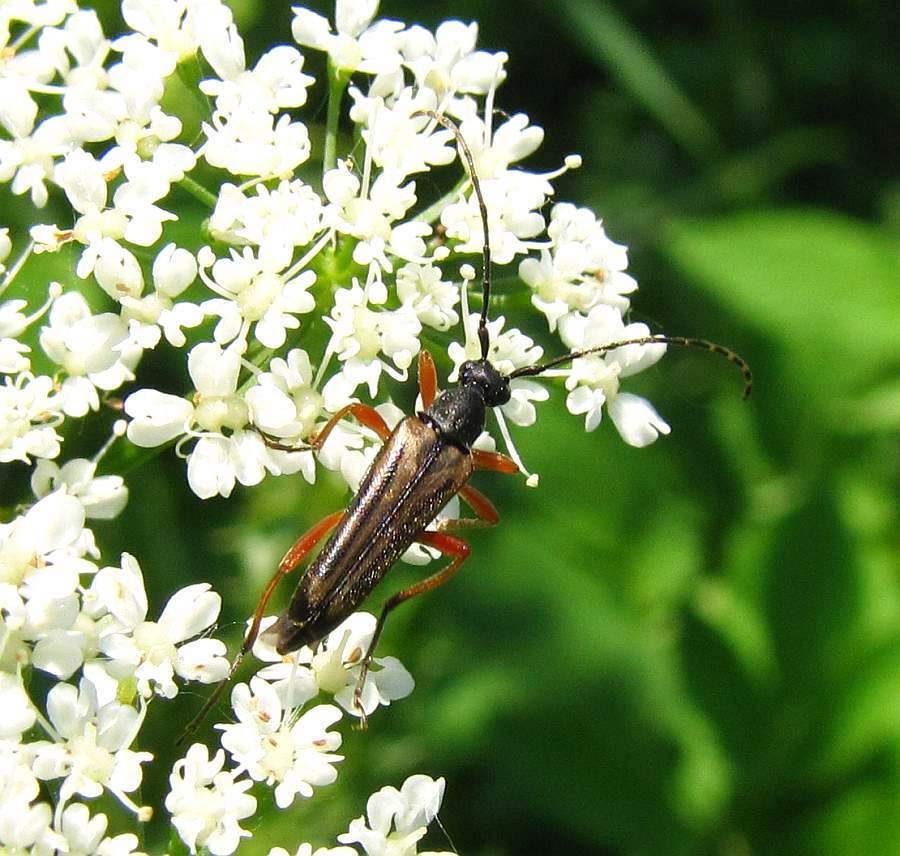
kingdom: Animalia
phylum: Arthropoda
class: Insecta
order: Coleoptera
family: Cerambycidae
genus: Analeptura
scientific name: Analeptura lineola
